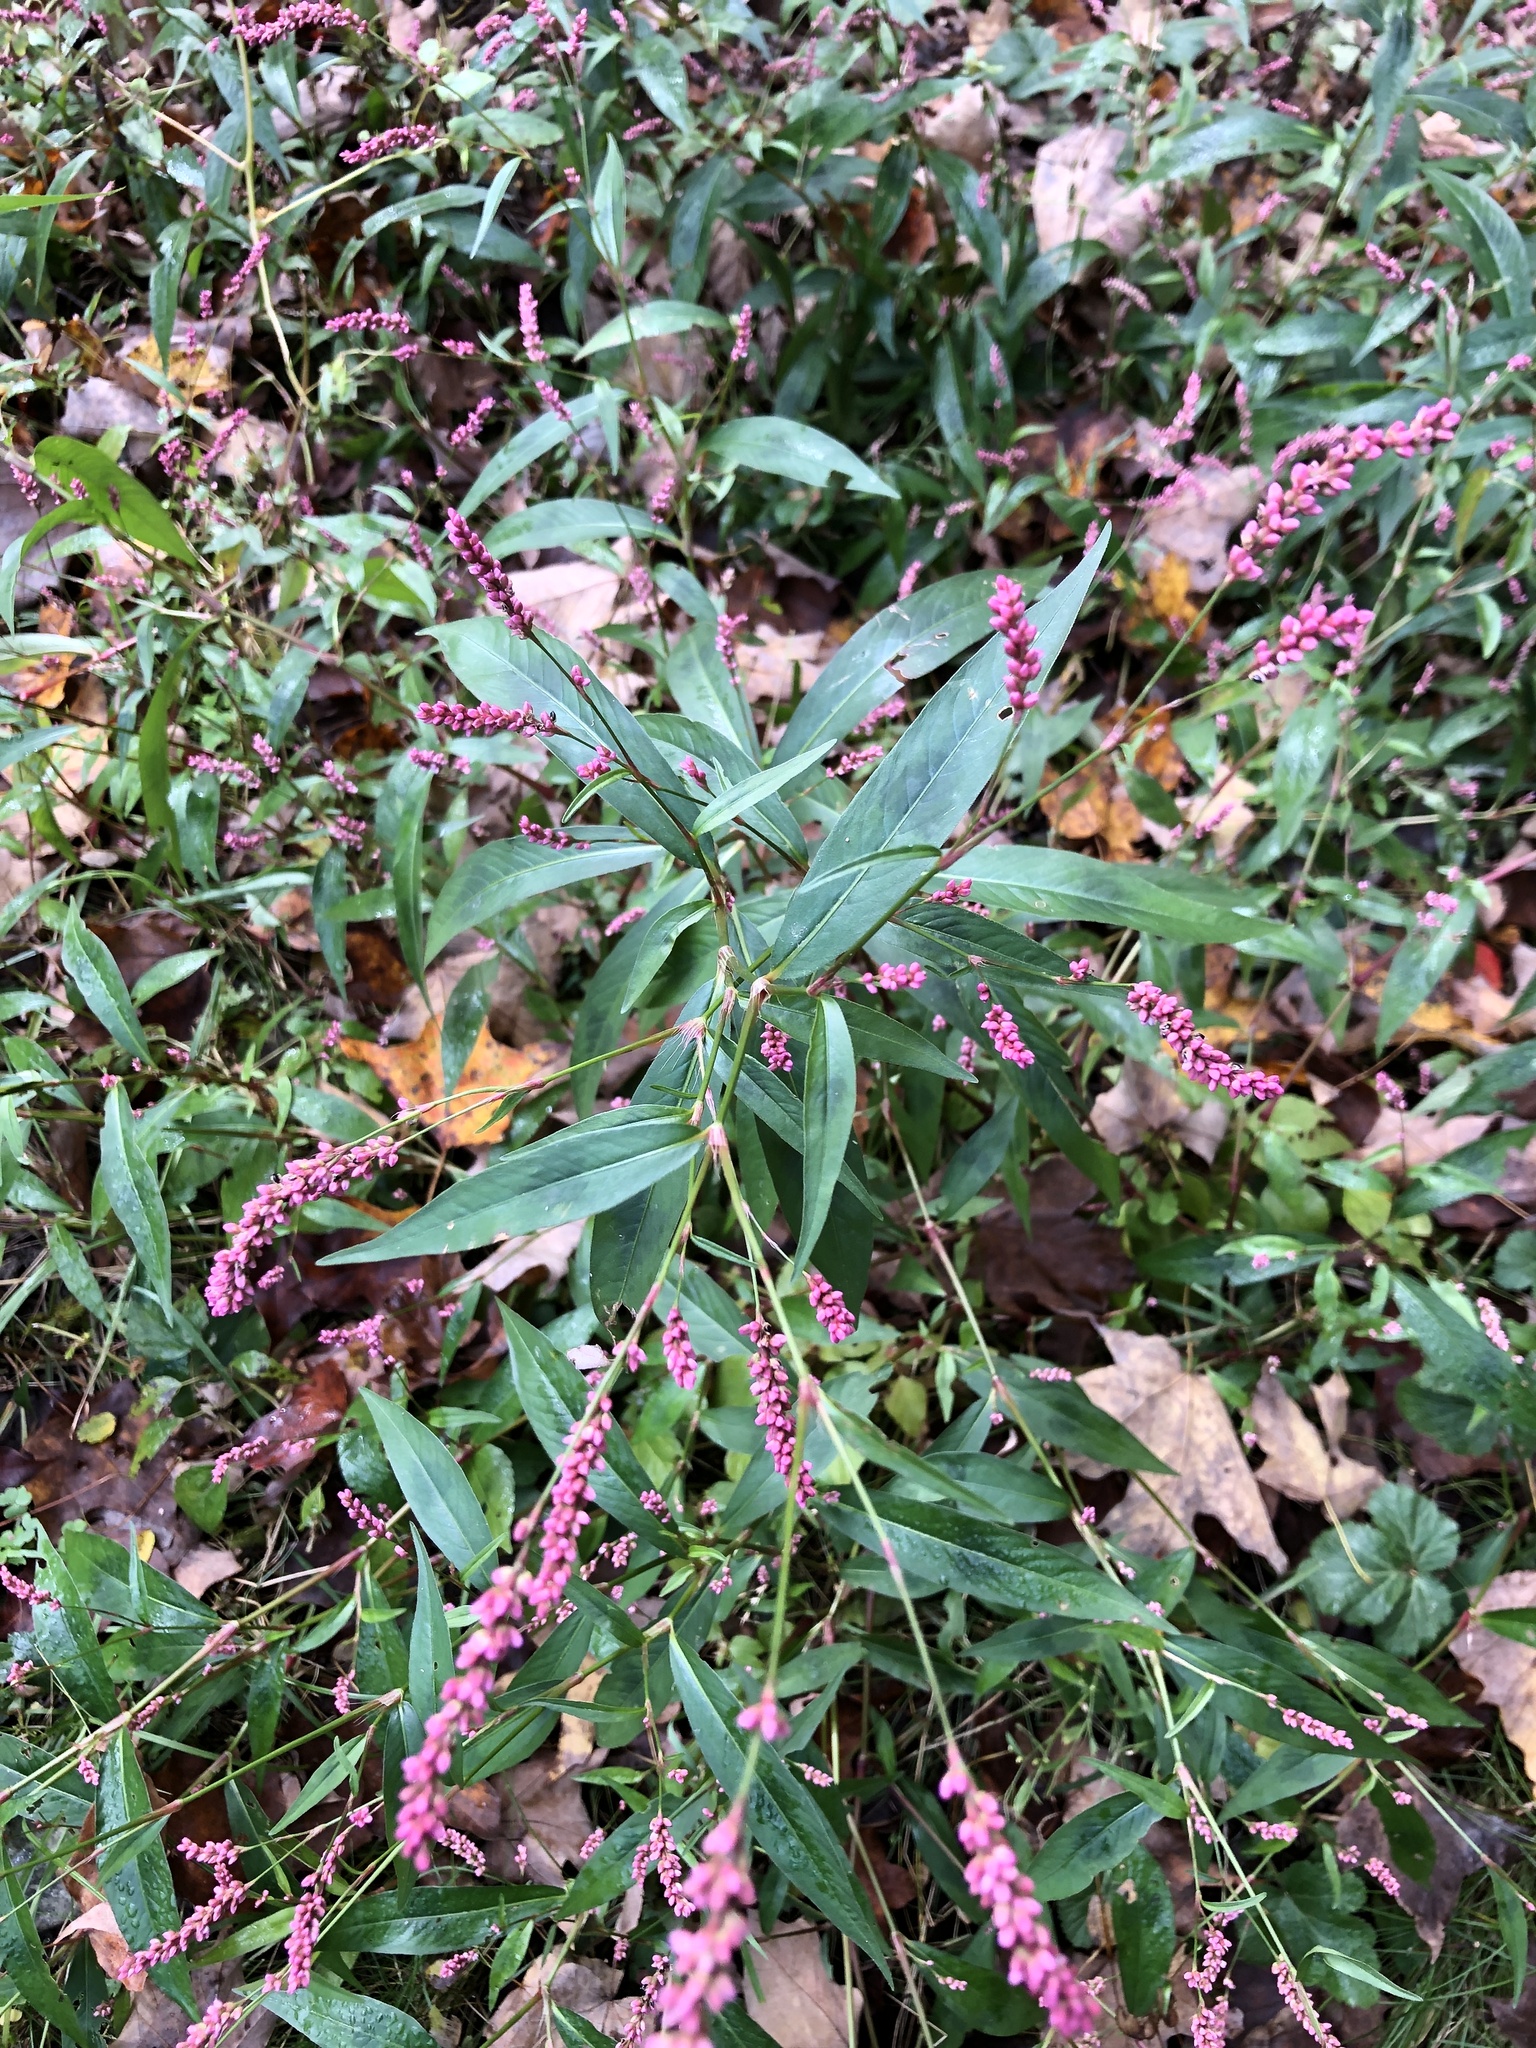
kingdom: Plantae
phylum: Tracheophyta
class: Magnoliopsida
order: Caryophyllales
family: Polygonaceae
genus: Persicaria
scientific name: Persicaria longiseta
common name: Bristly lady's-thumb
